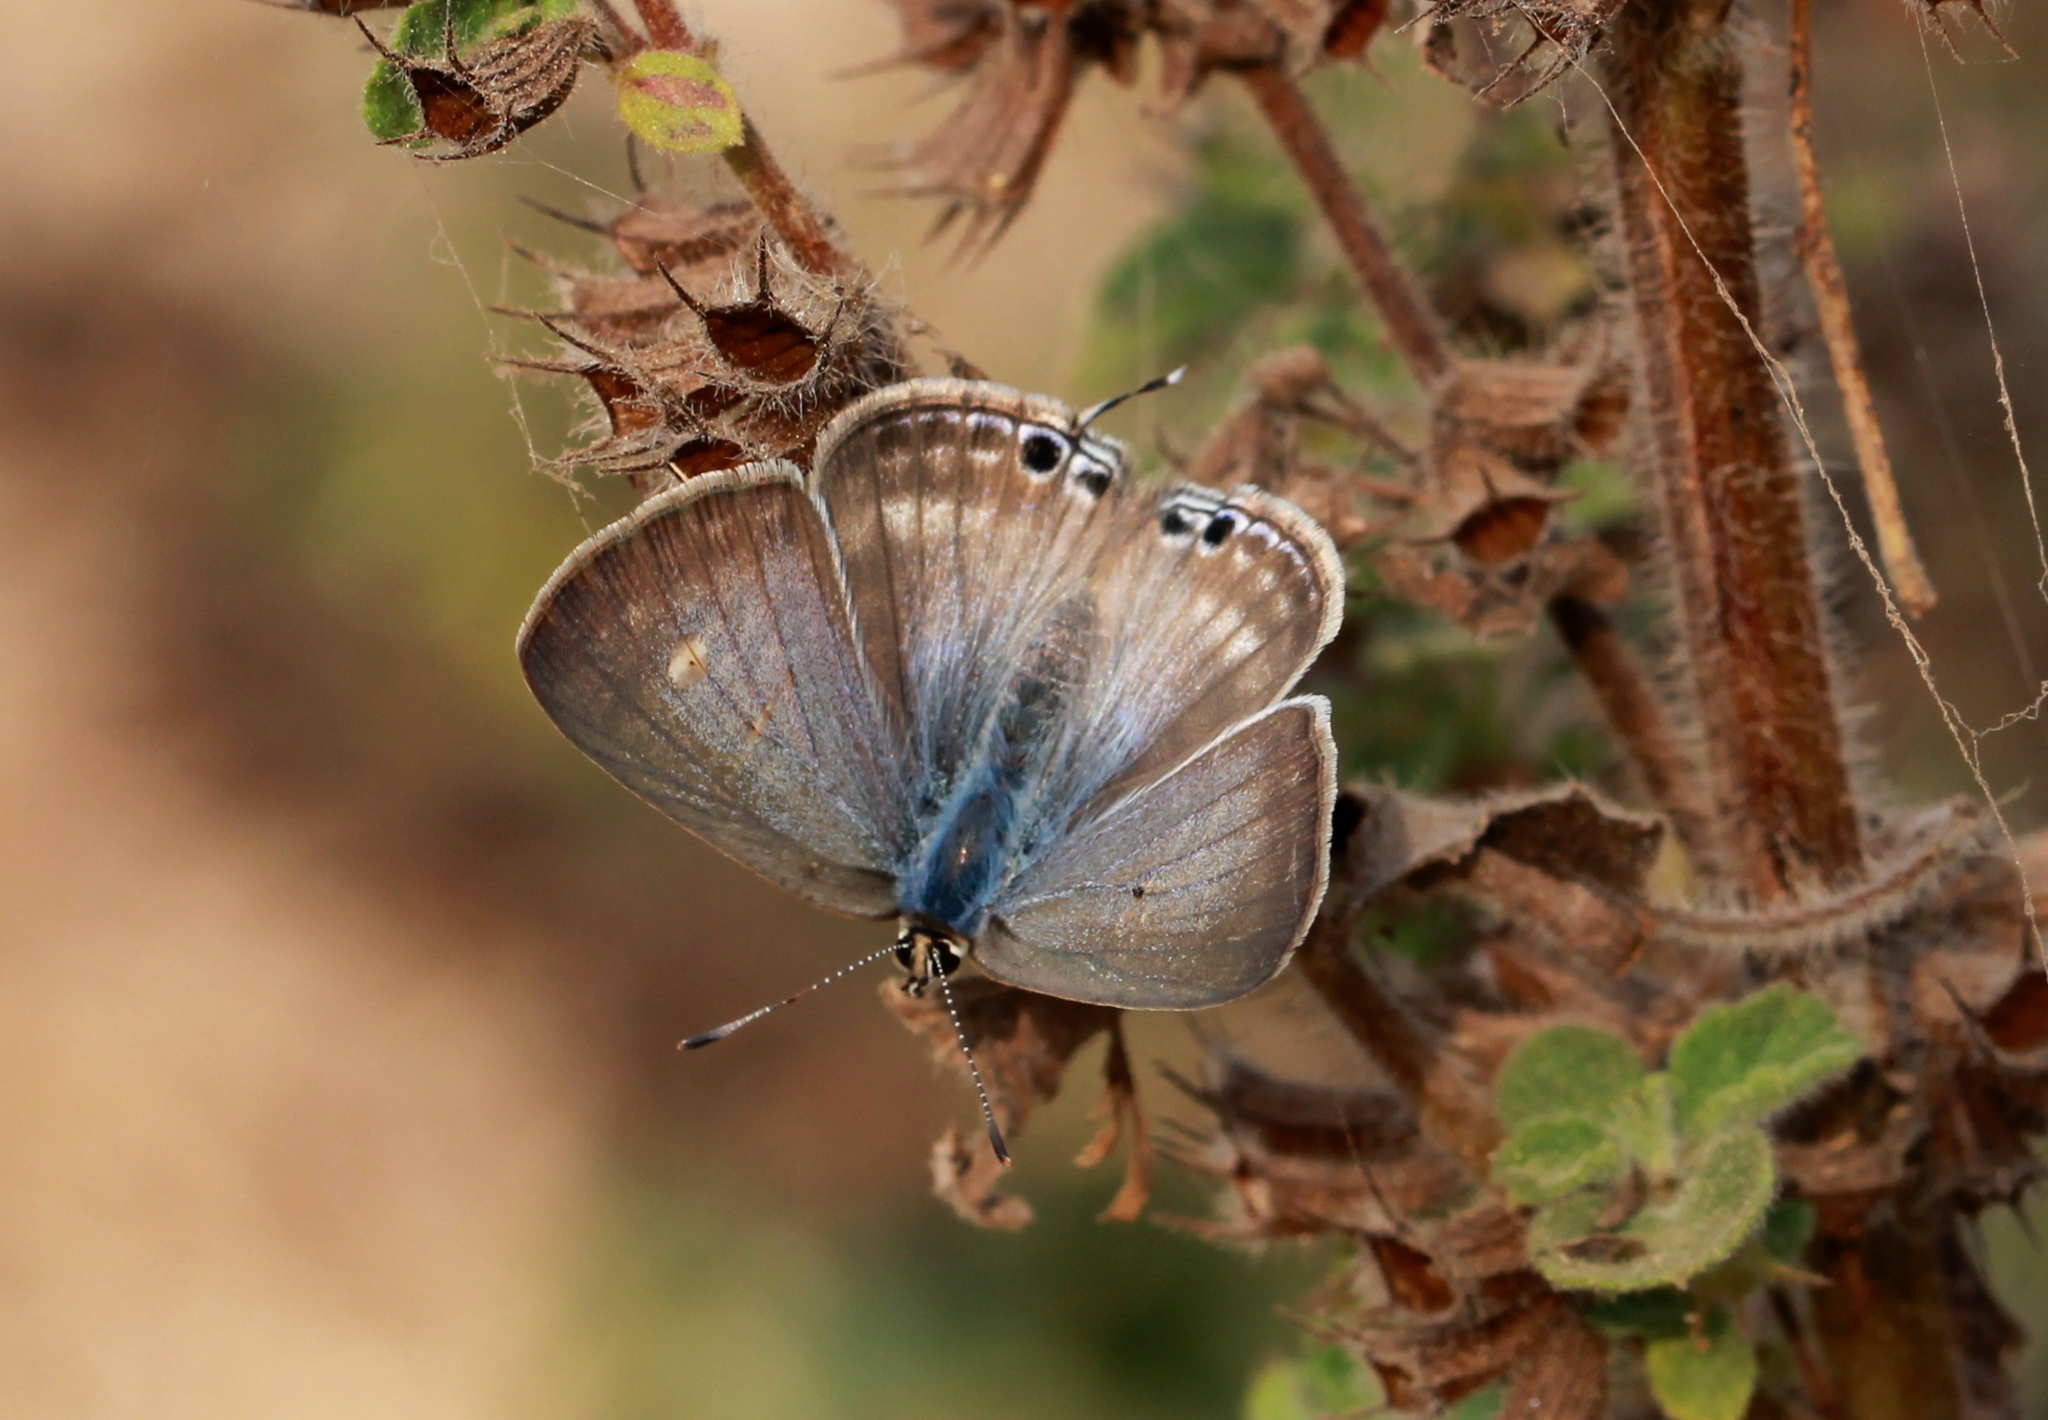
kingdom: Animalia
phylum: Arthropoda
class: Insecta
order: Lepidoptera
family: Lycaenidae
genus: Euchrysops
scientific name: Euchrysops cnejus
